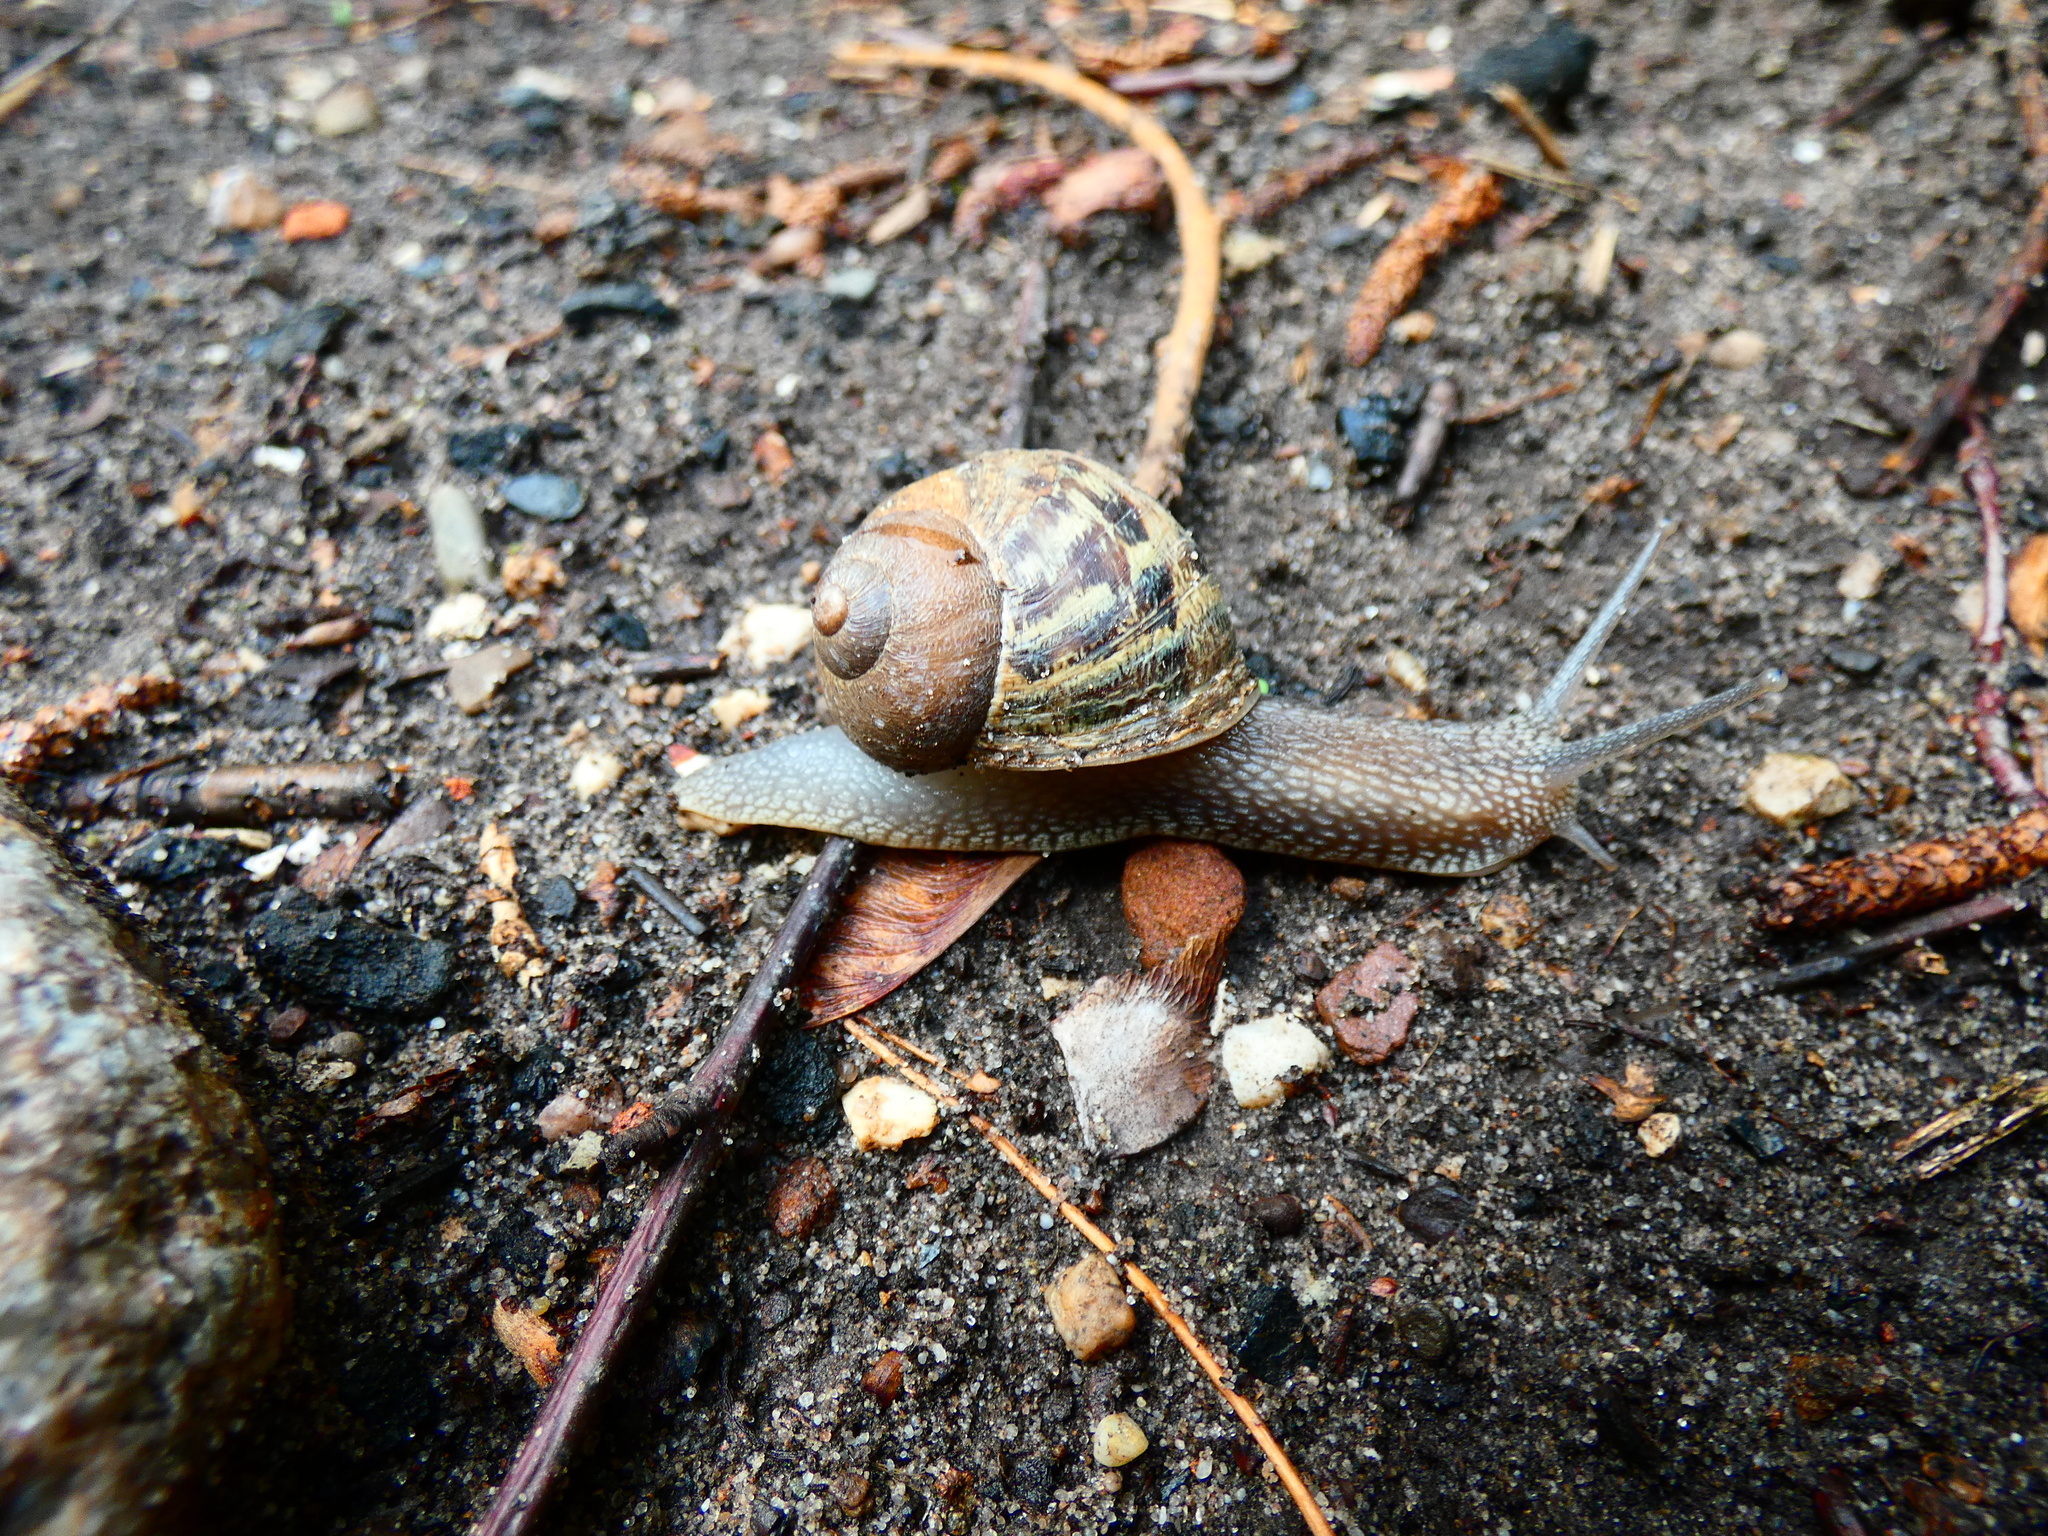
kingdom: Animalia
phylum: Mollusca
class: Gastropoda
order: Stylommatophora
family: Helicidae
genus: Cornu
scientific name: Cornu aspersum
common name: Brown garden snail
